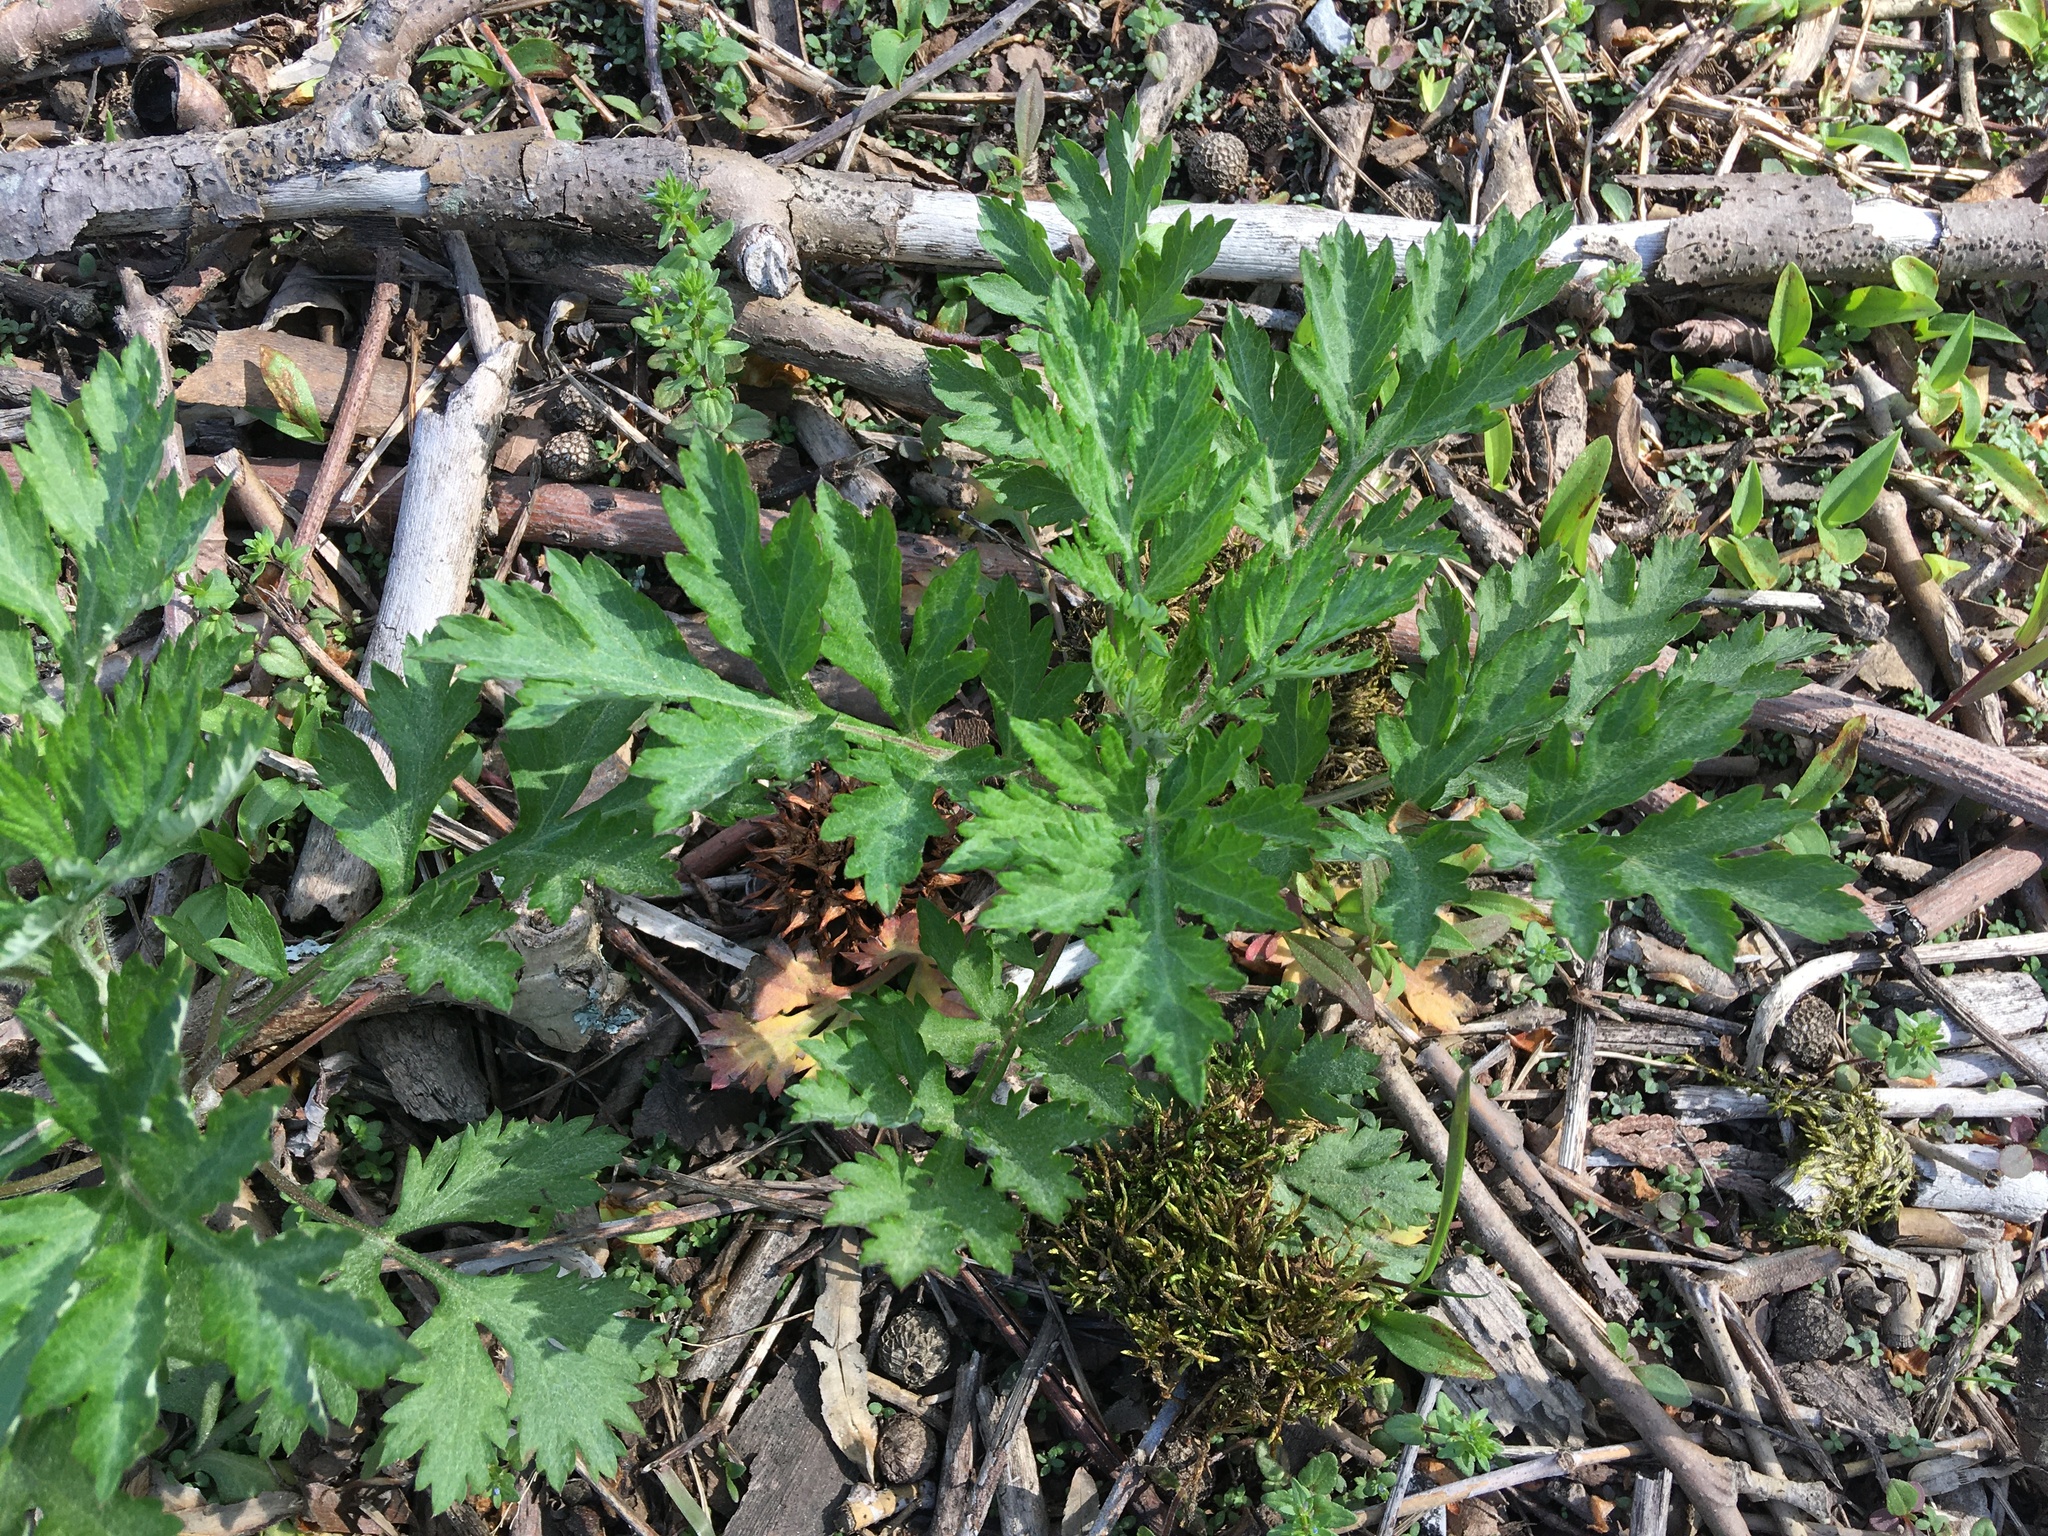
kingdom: Plantae
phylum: Tracheophyta
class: Magnoliopsida
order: Asterales
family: Asteraceae
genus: Artemisia
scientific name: Artemisia vulgaris
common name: Mugwort
